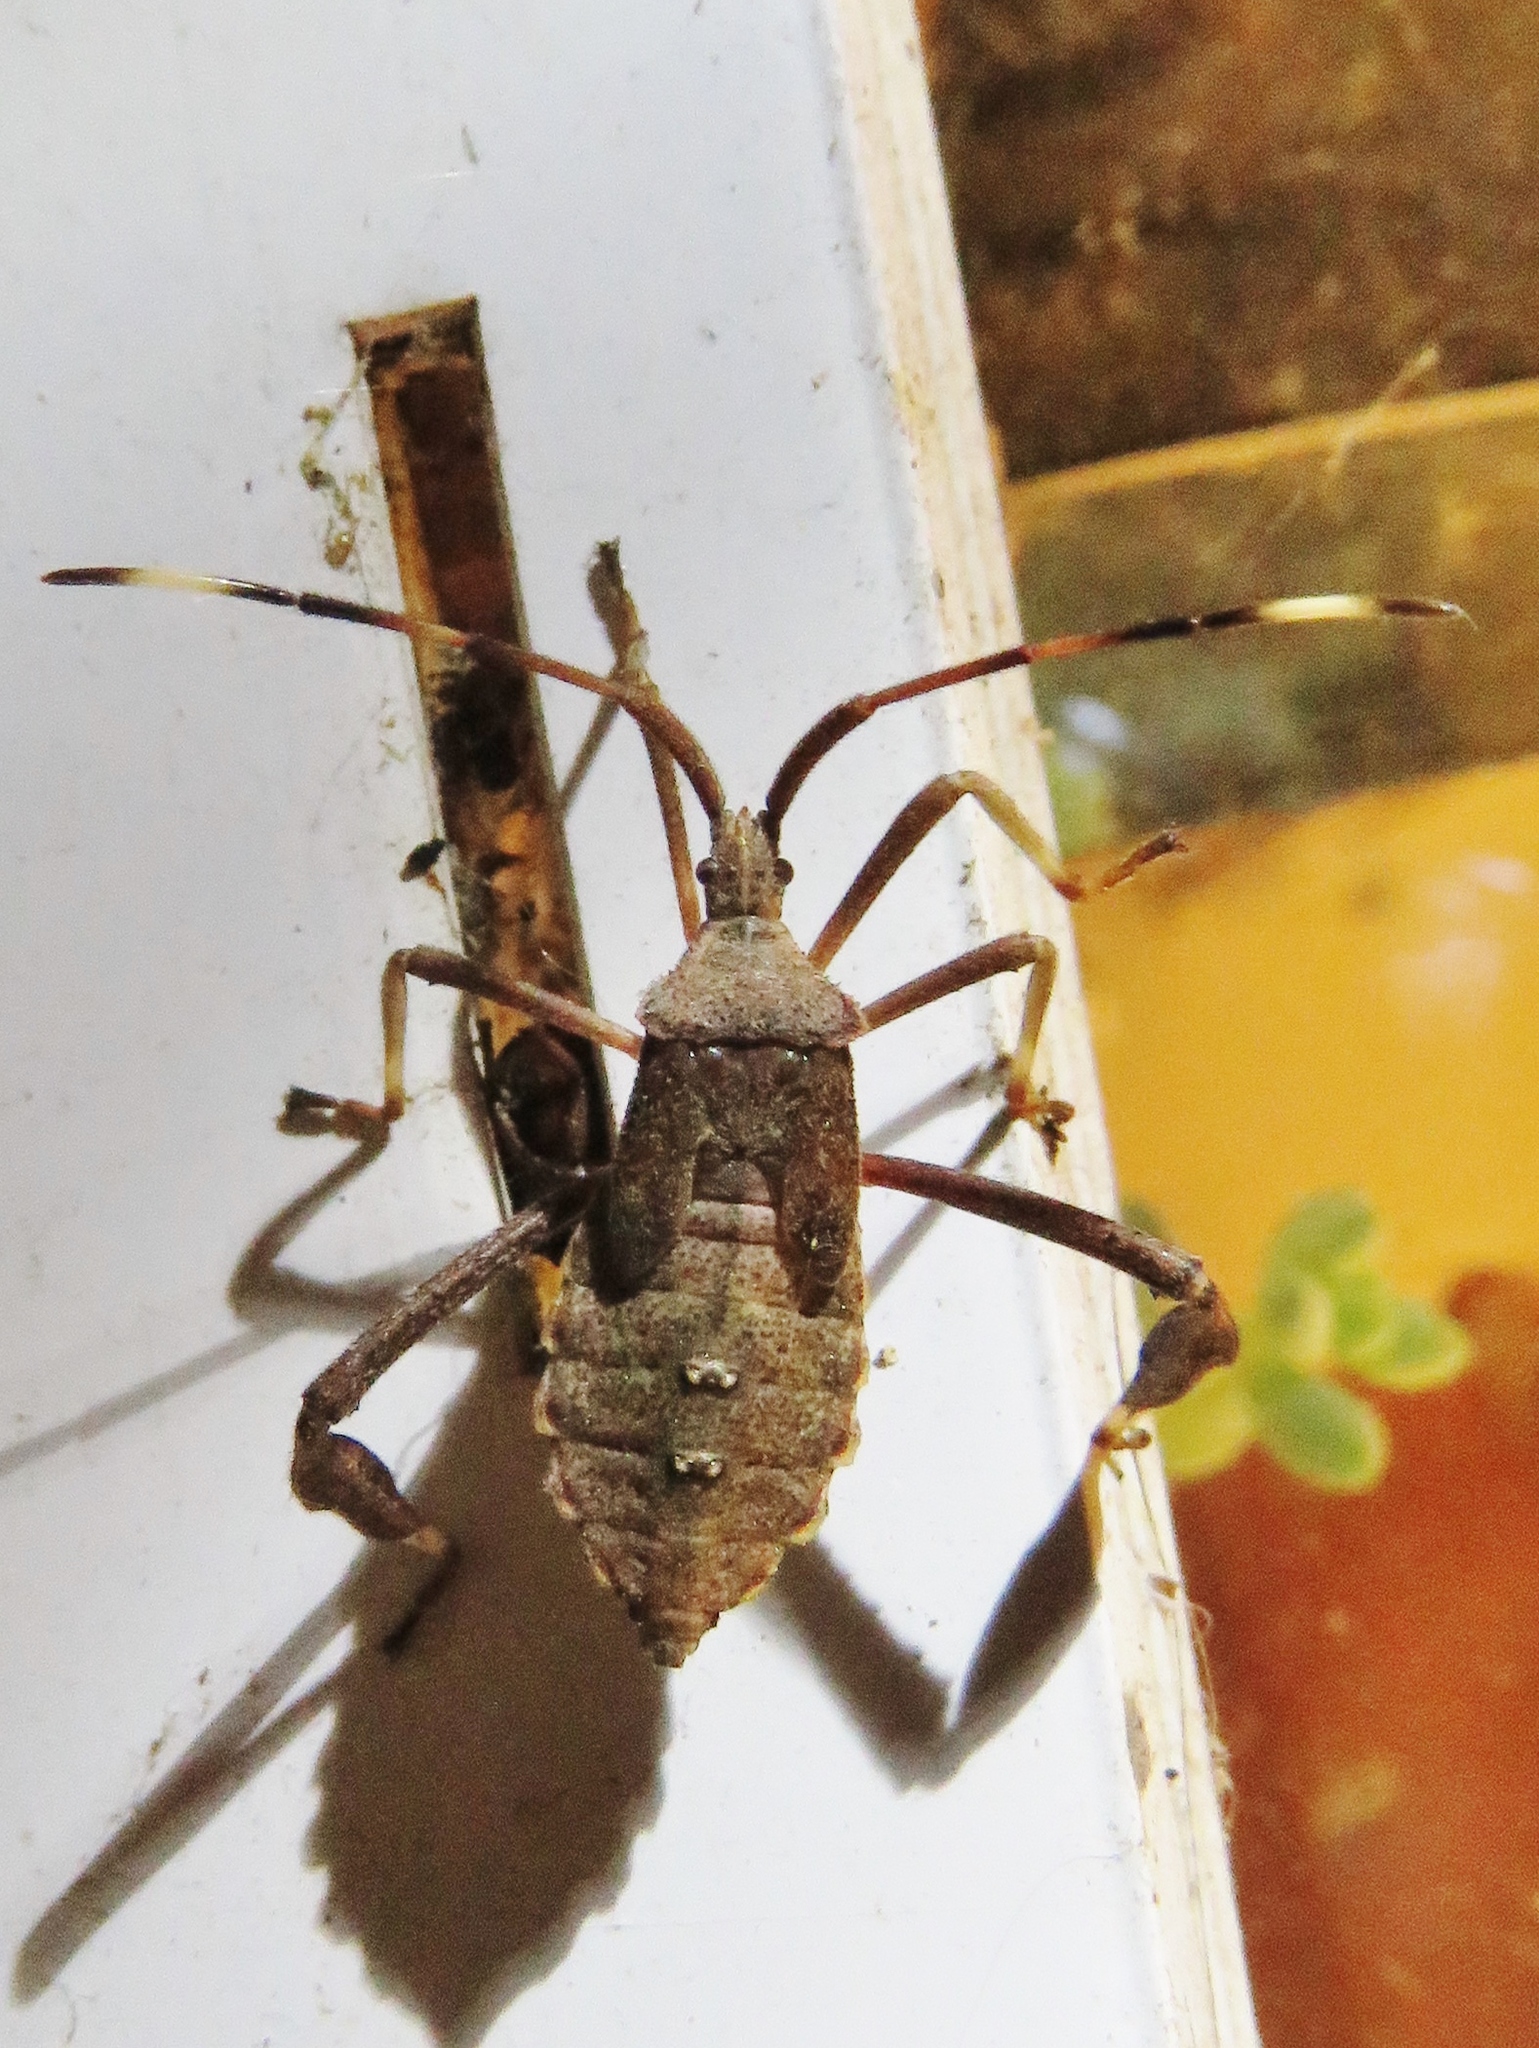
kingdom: Animalia
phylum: Arthropoda
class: Insecta
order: Hemiptera
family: Coreidae
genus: Acanthocephala
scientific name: Acanthocephala terminalis
